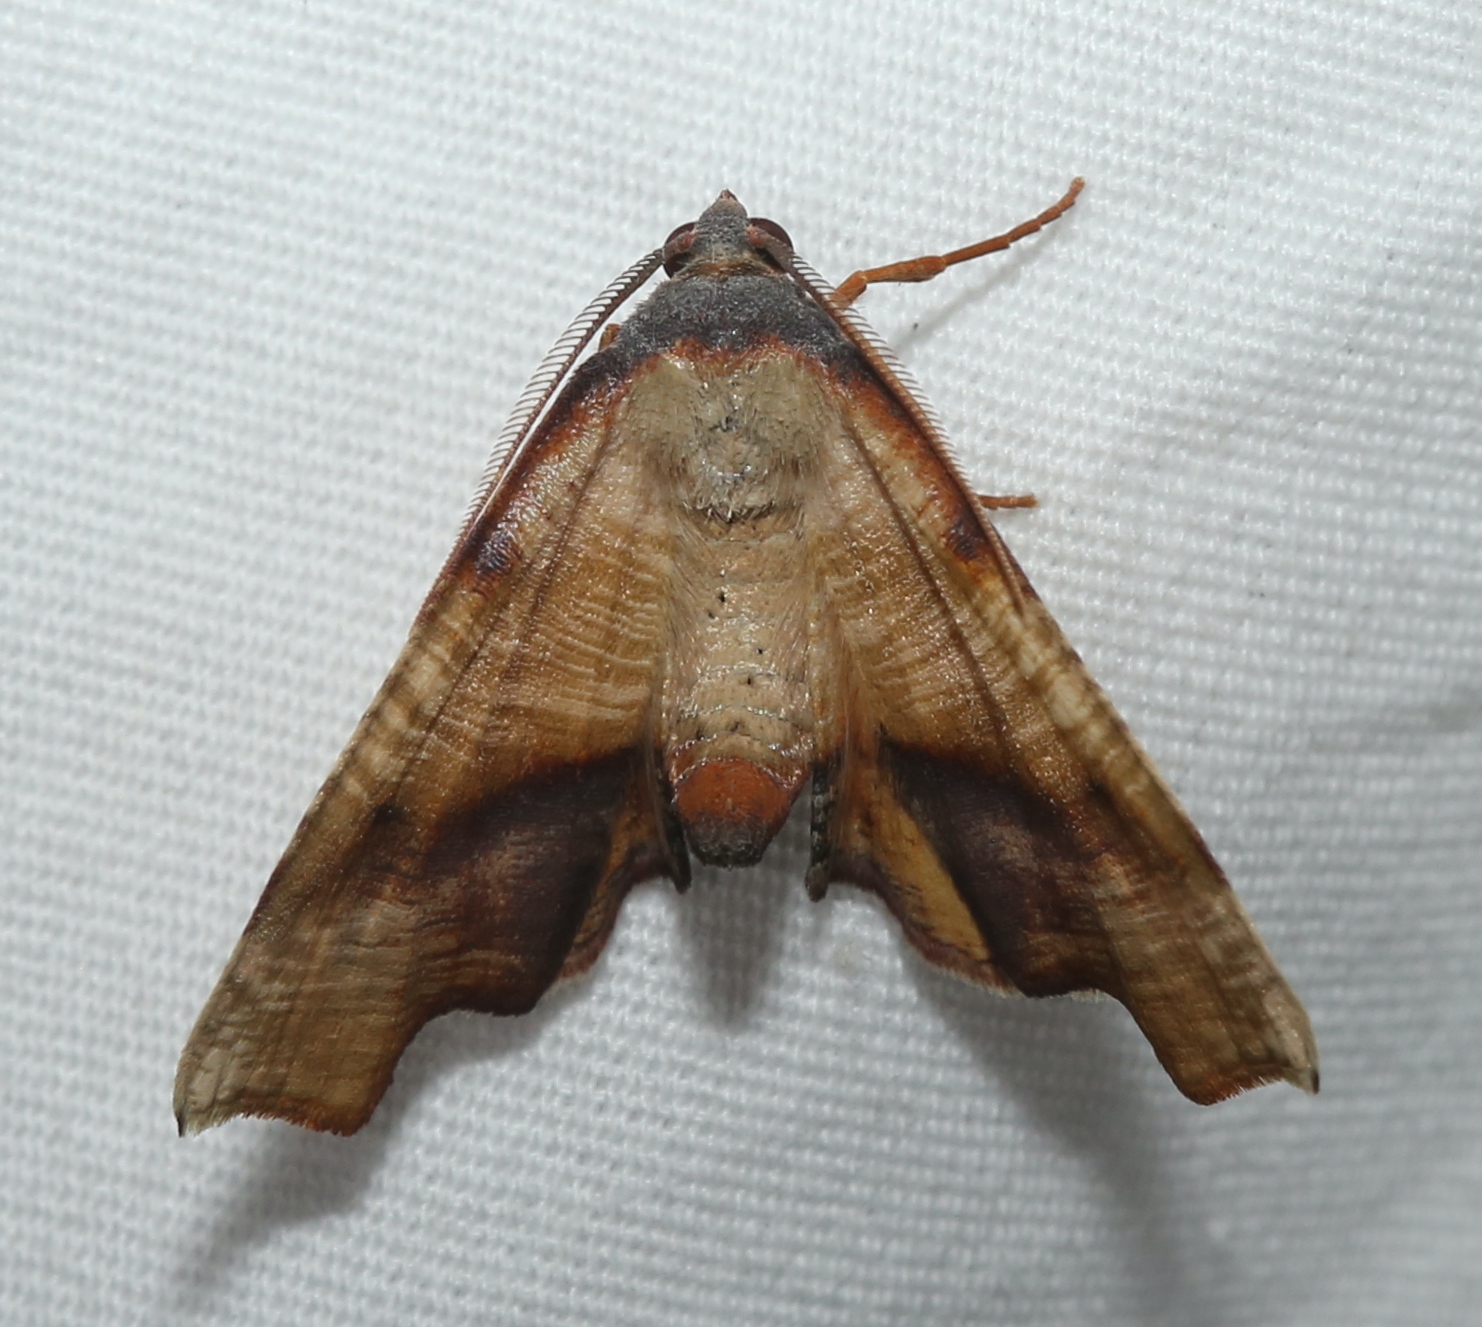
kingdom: Animalia
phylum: Arthropoda
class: Insecta
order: Lepidoptera
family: Geometridae
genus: Plagodis
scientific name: Plagodis fervidaria
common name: Fervid plagodis
